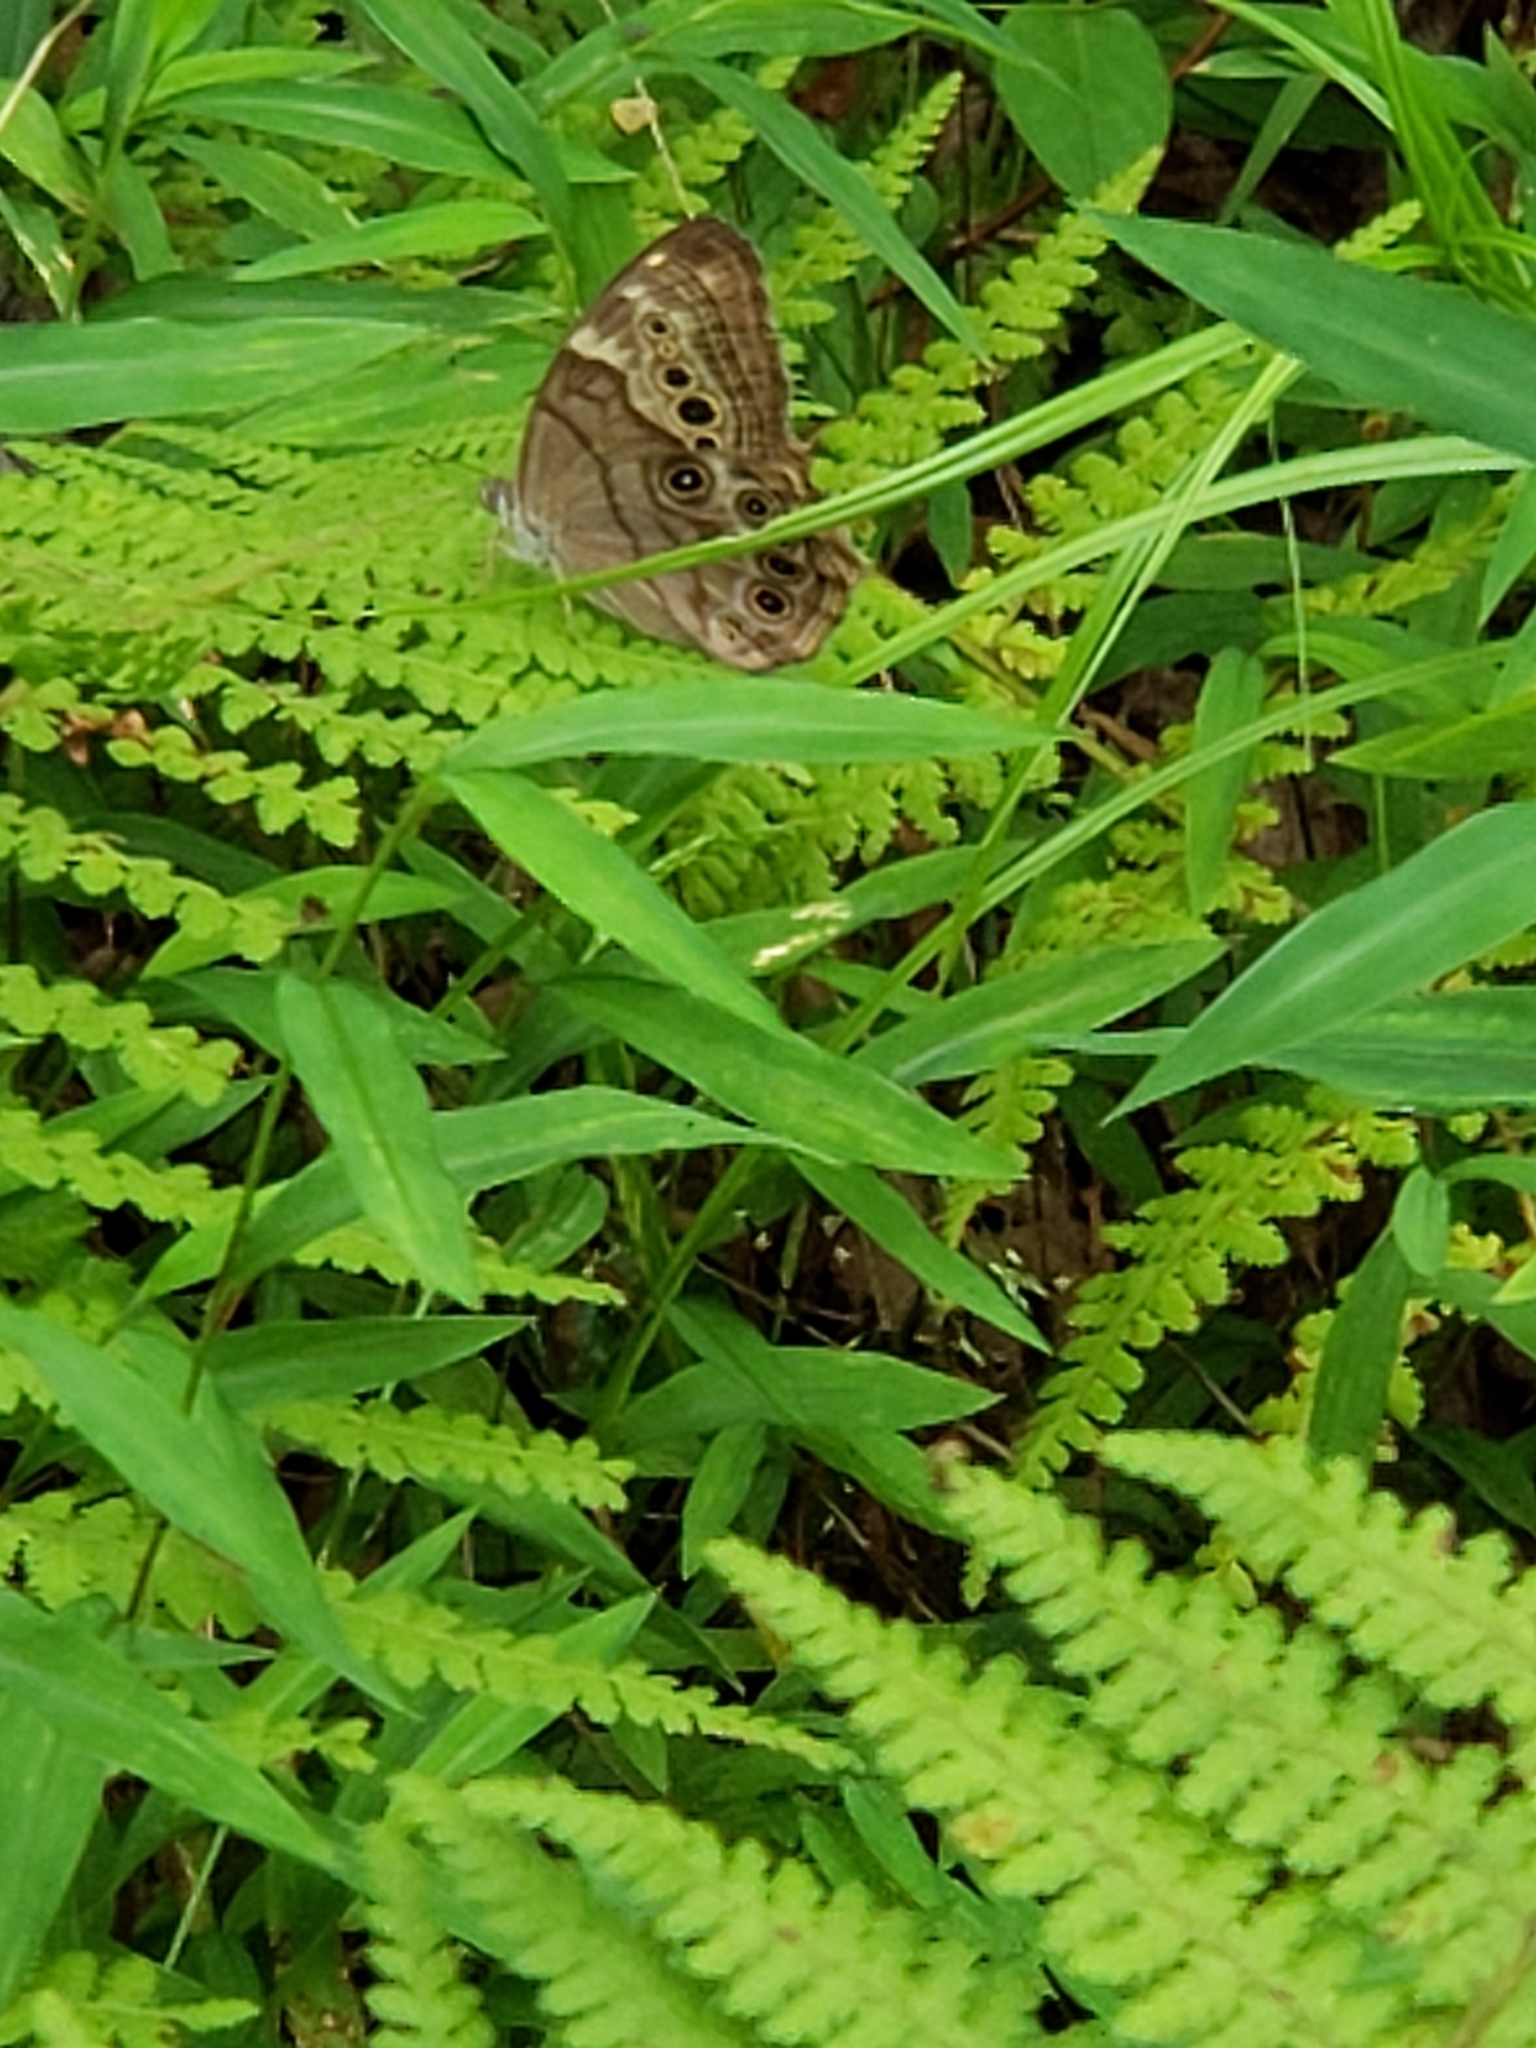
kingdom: Animalia
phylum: Arthropoda
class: Insecta
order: Lepidoptera
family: Nymphalidae
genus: Lethe
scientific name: Lethe anthedon
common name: Northern pearly-eye
